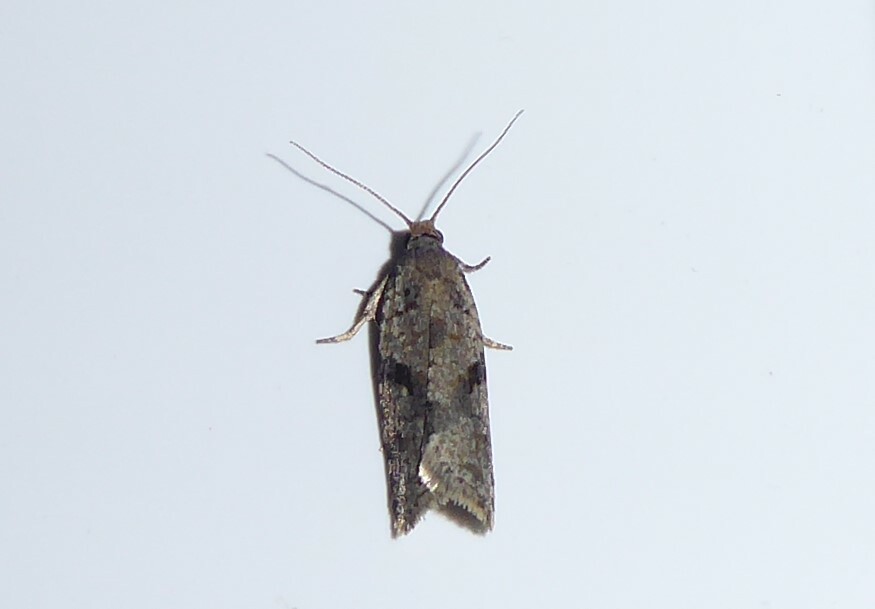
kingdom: Animalia
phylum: Arthropoda
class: Insecta
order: Lepidoptera
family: Tortricidae
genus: Capua
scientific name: Capua semiferana
